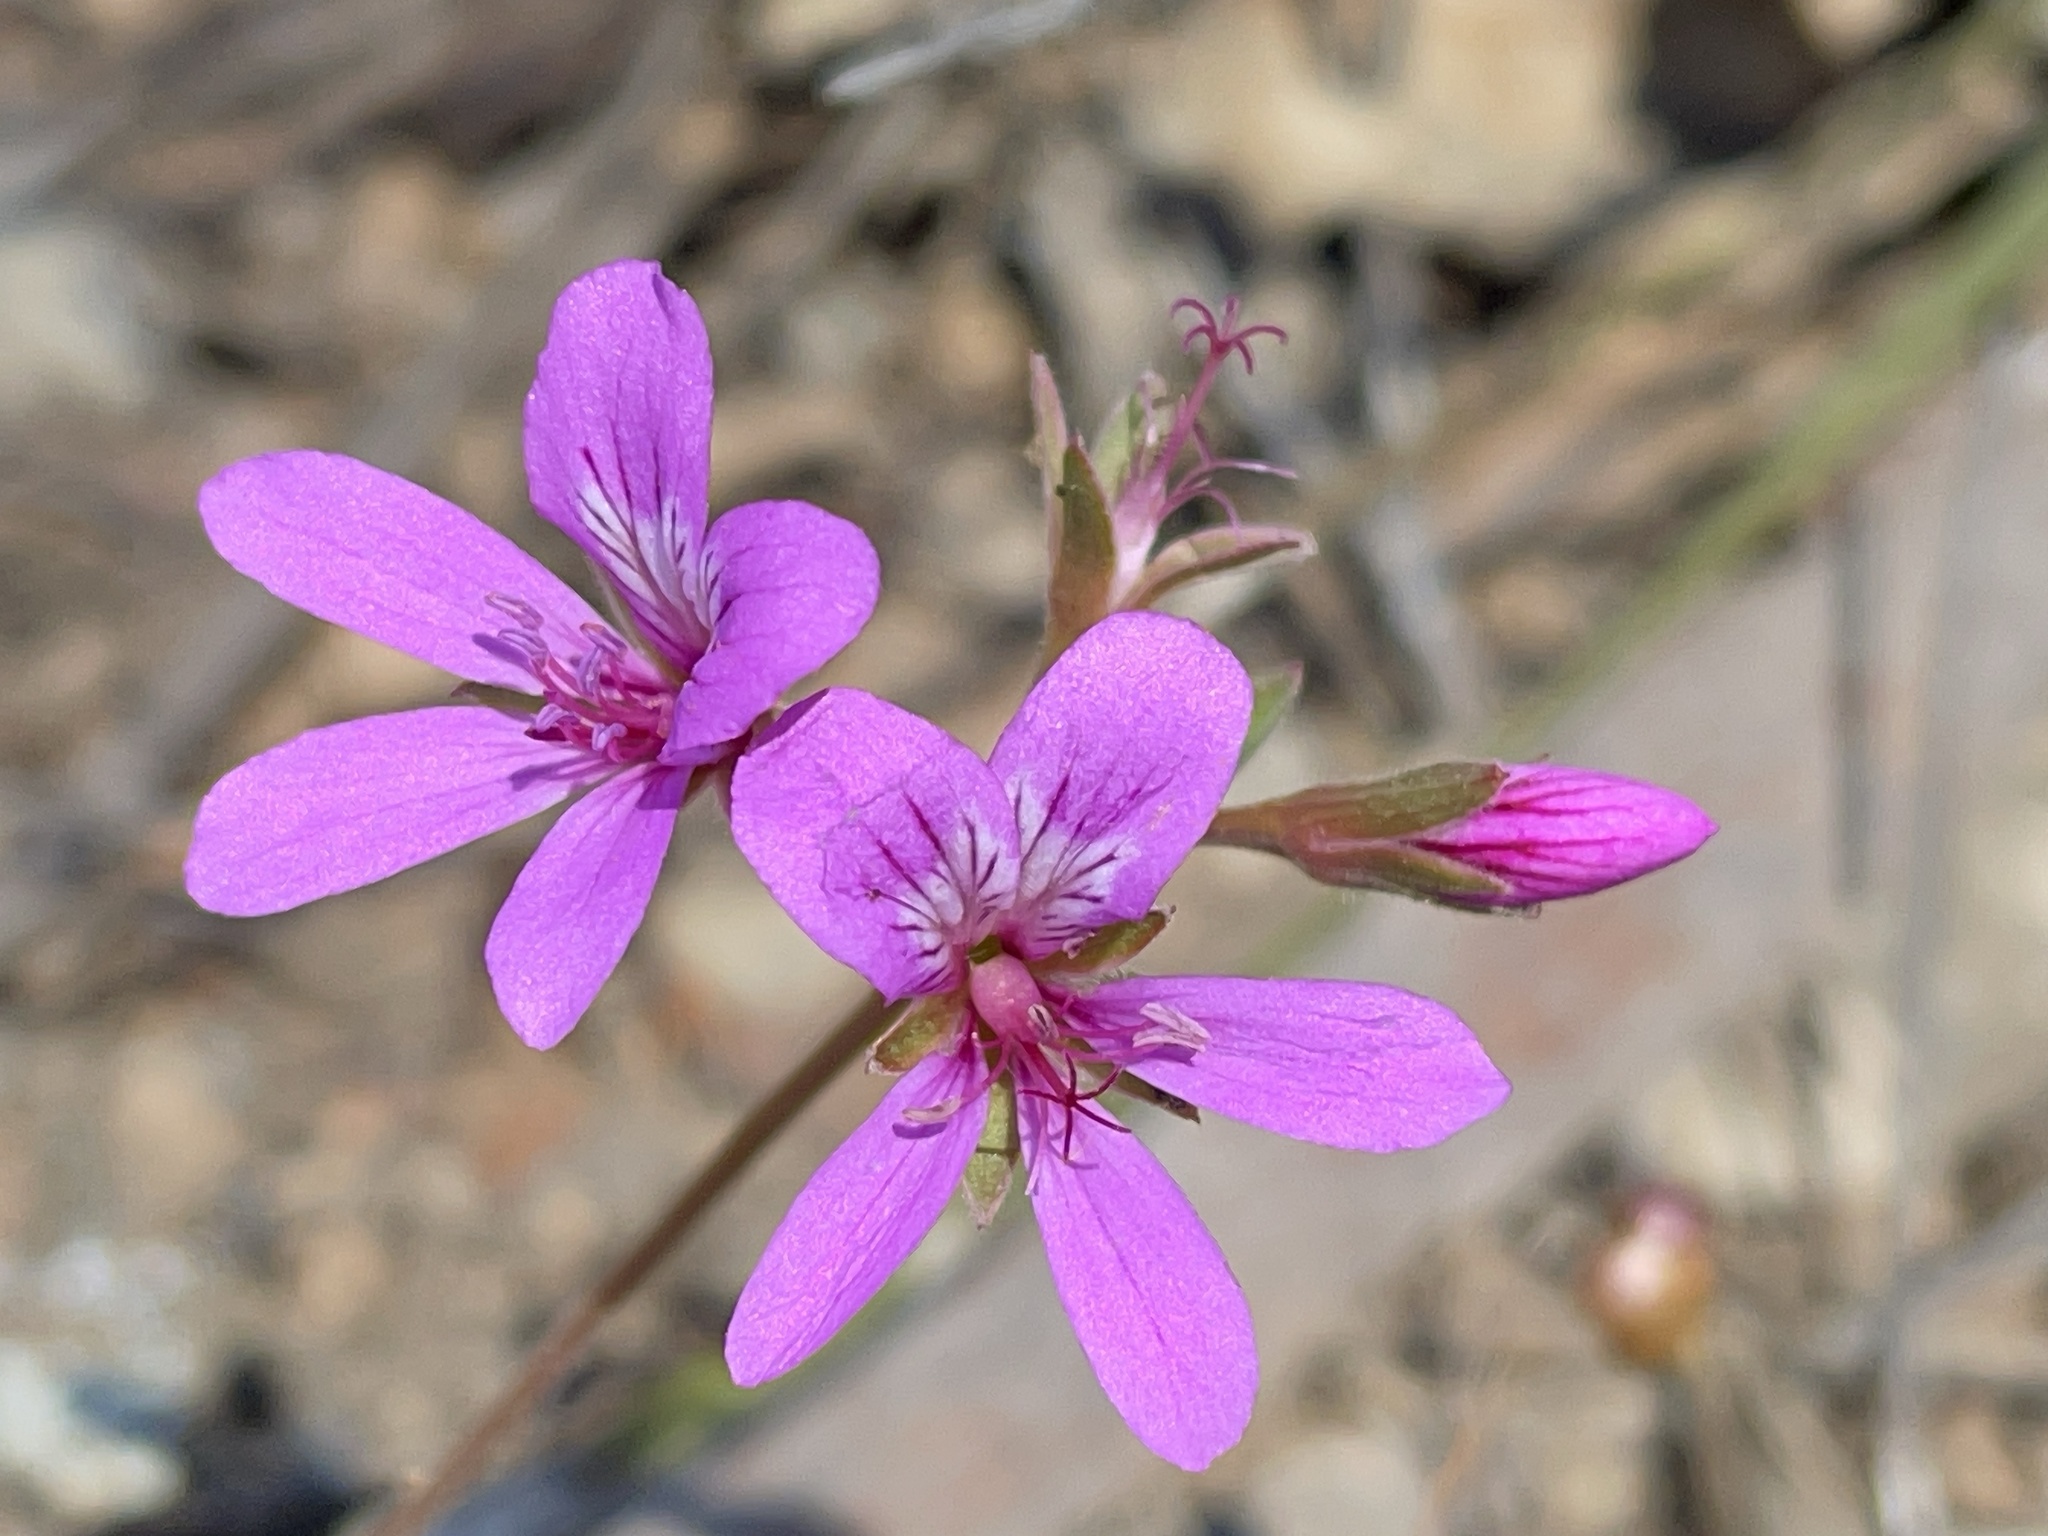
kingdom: Plantae
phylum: Tracheophyta
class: Magnoliopsida
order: Geraniales
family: Geraniaceae
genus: Pelargonium
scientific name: Pelargonium rodneyanum
